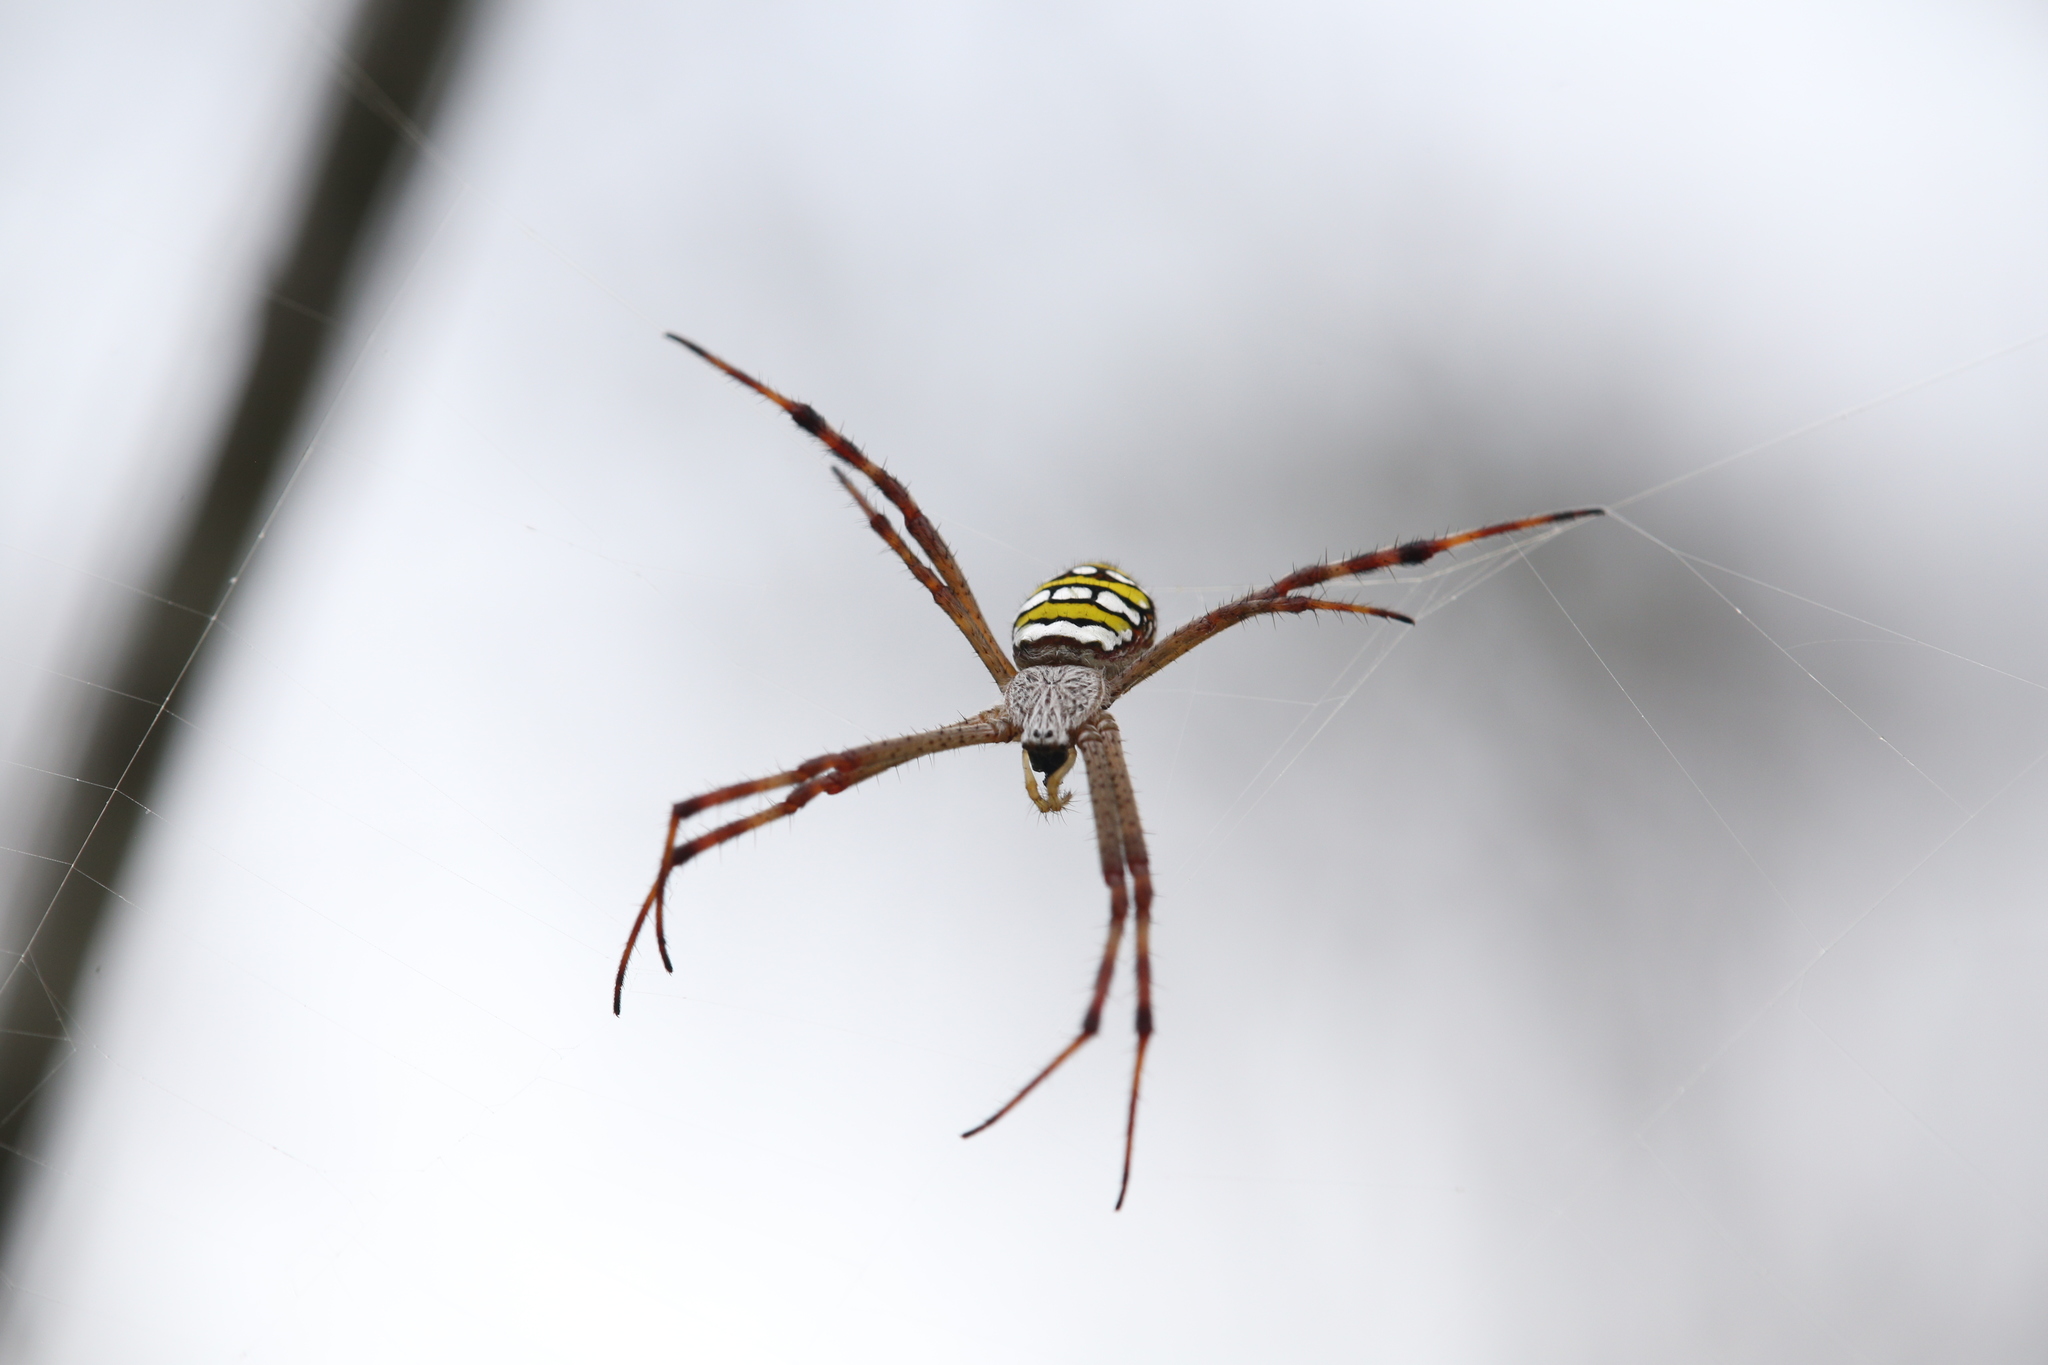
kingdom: Animalia
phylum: Arthropoda
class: Arachnida
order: Araneae
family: Araneidae
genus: Argiope
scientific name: Argiope picta
